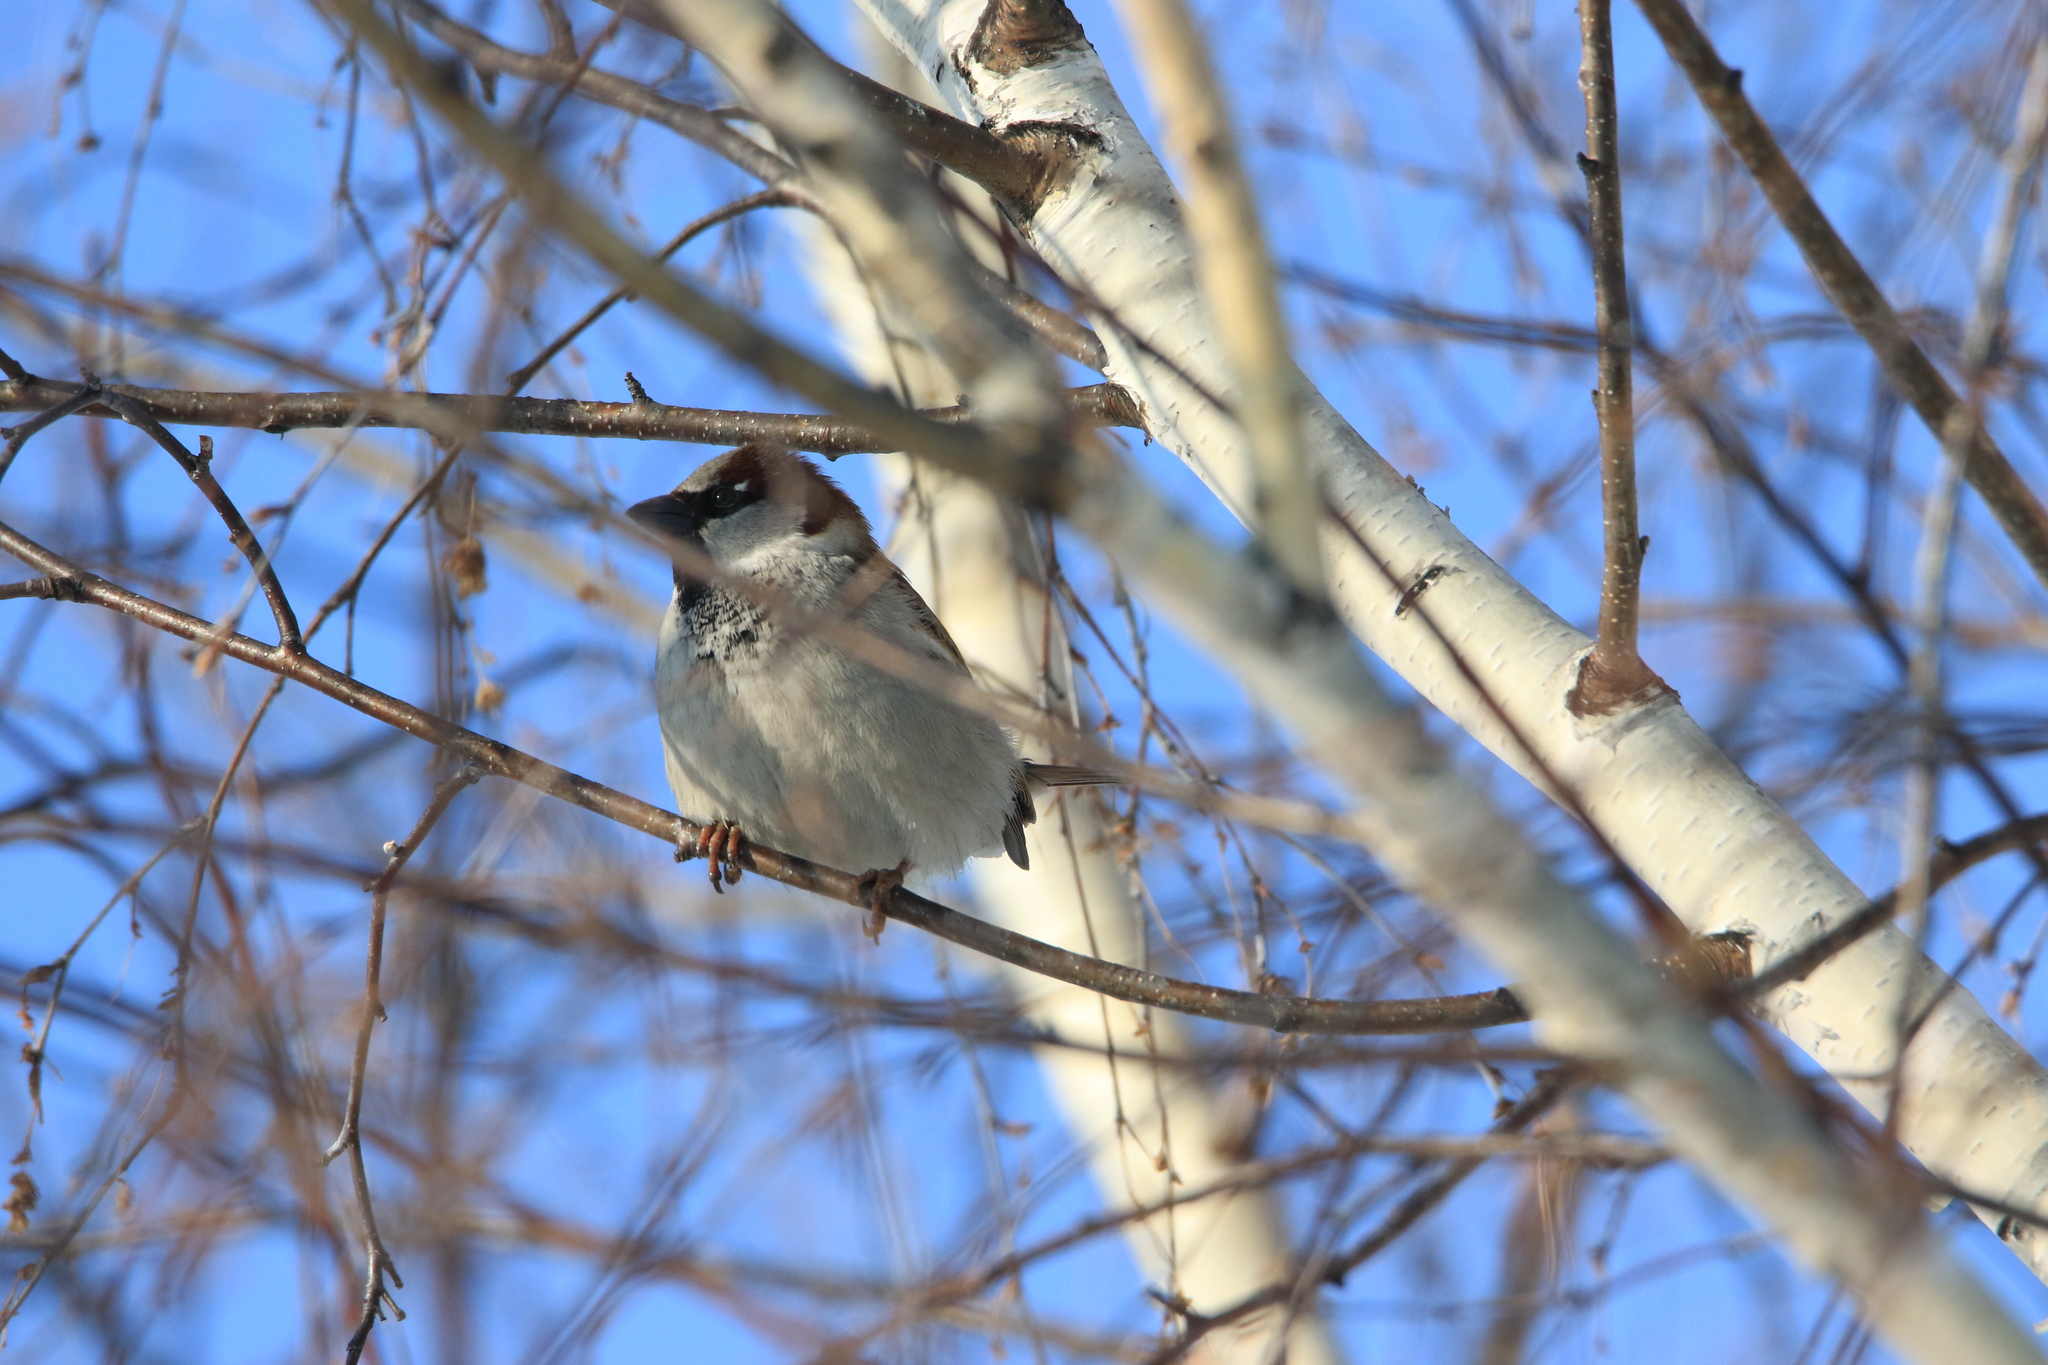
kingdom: Animalia
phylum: Chordata
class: Aves
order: Passeriformes
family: Passeridae
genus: Passer
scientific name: Passer domesticus
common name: House sparrow
